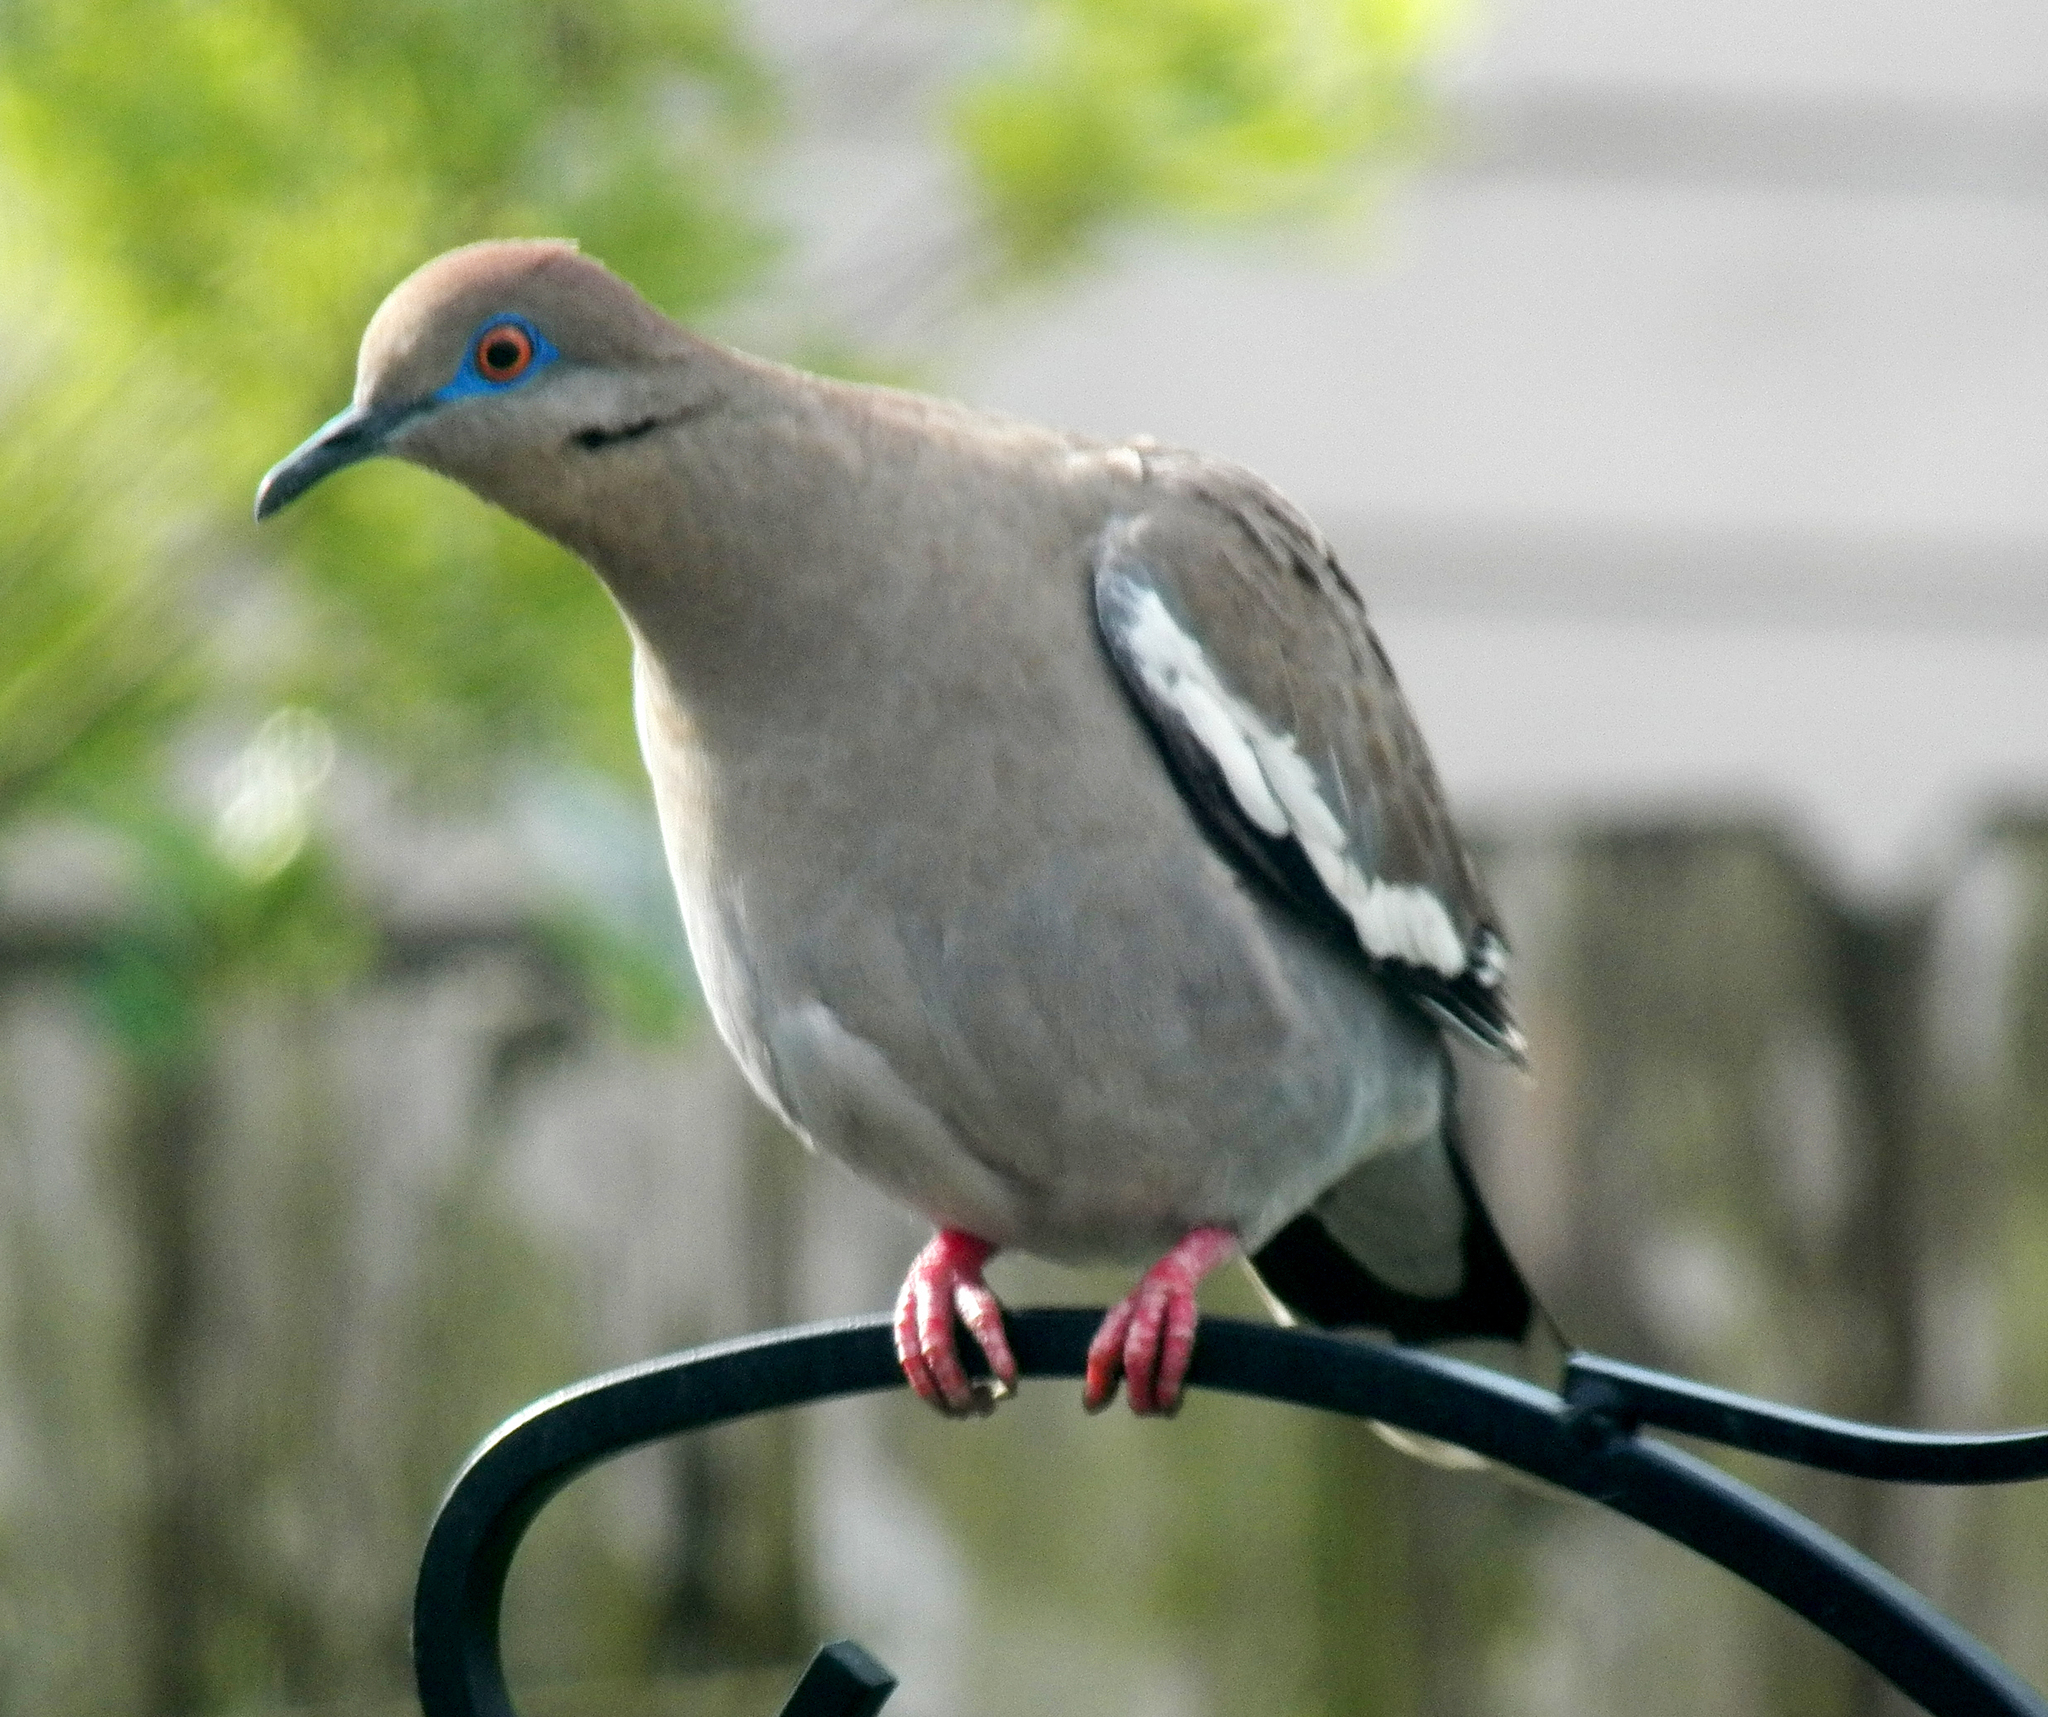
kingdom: Animalia
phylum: Chordata
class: Aves
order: Columbiformes
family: Columbidae
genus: Zenaida
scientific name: Zenaida asiatica
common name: White-winged dove
